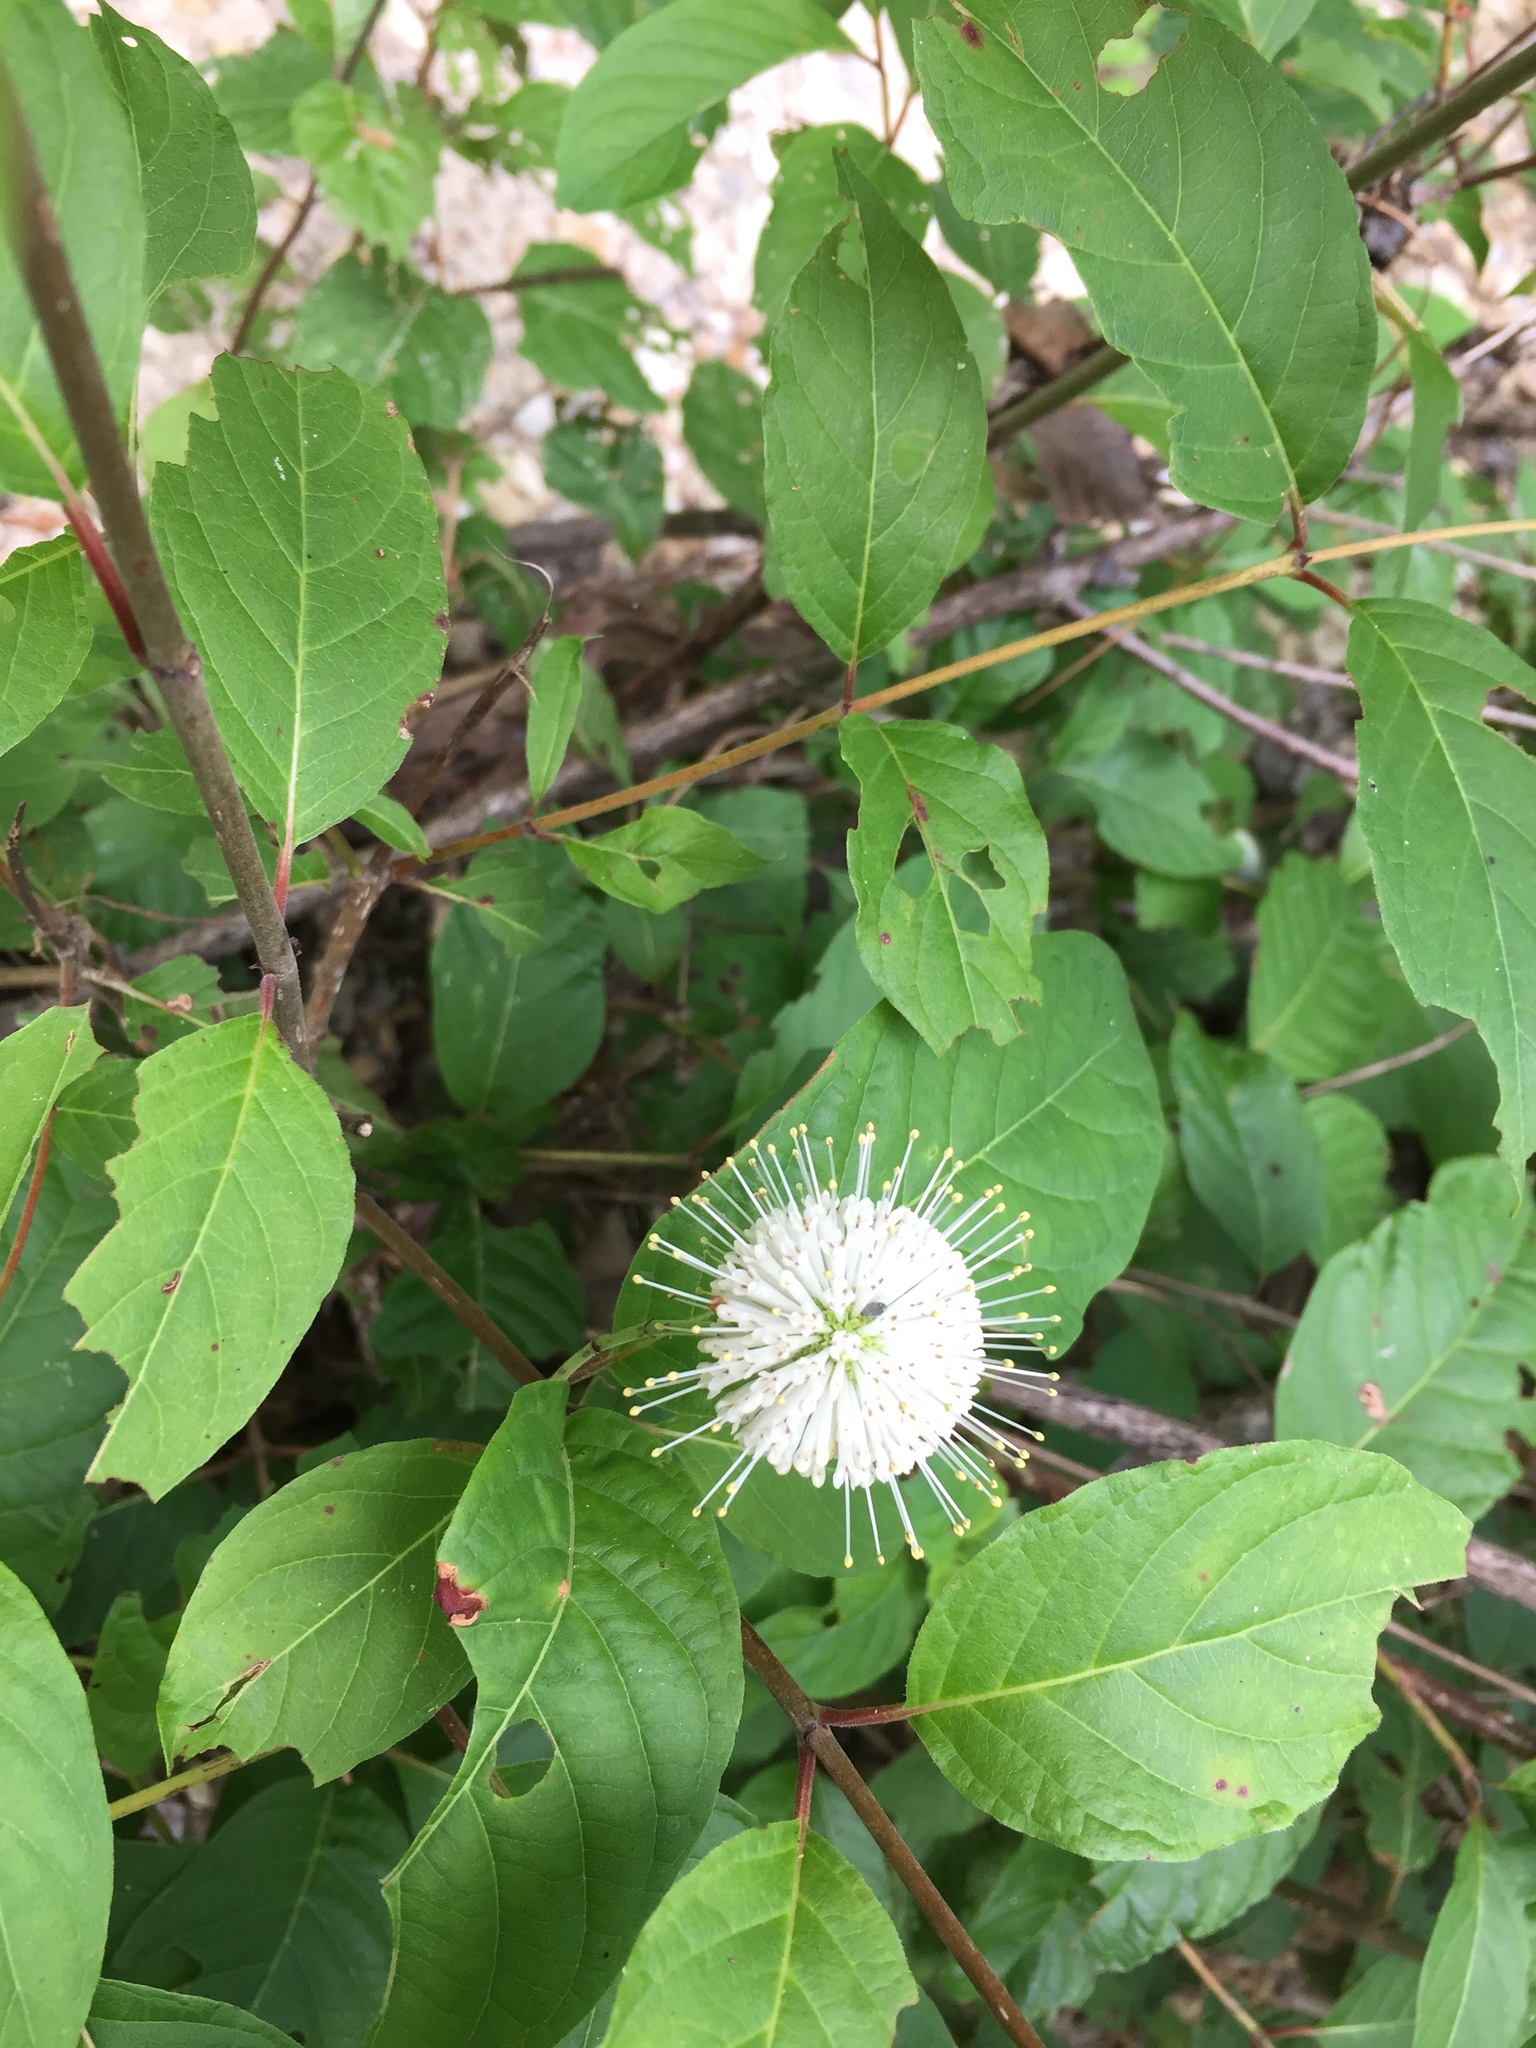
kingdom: Plantae
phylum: Tracheophyta
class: Magnoliopsida
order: Gentianales
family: Rubiaceae
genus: Cephalanthus
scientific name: Cephalanthus occidentalis
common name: Button-willow
